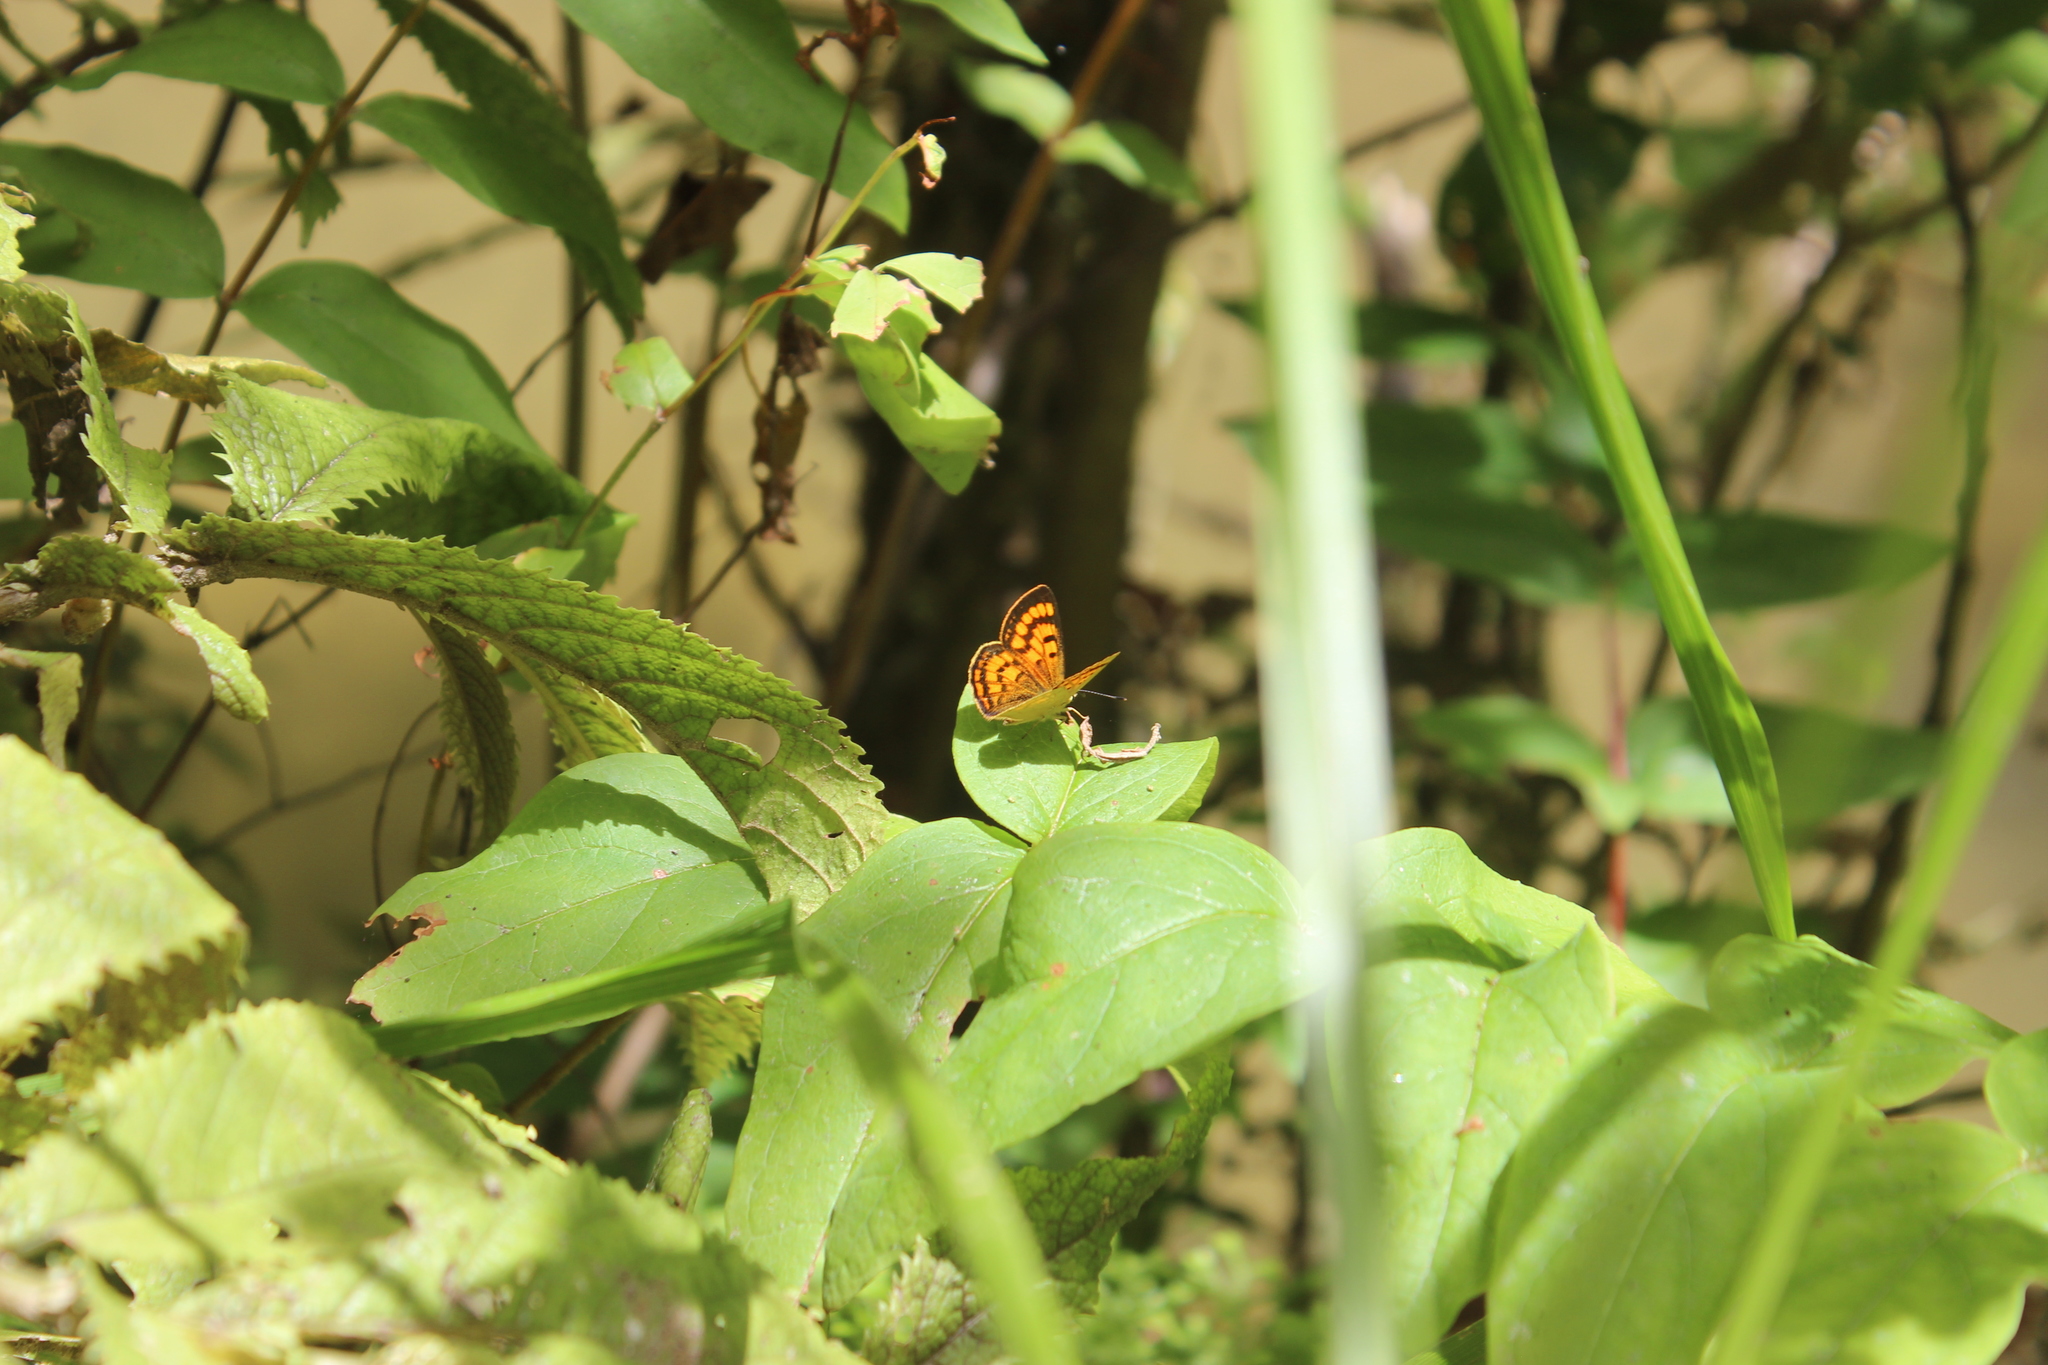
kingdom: Animalia
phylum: Arthropoda
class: Insecta
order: Lepidoptera
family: Lycaenidae
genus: Lycaena
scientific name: Lycaena salustius
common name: North island coastal copper
